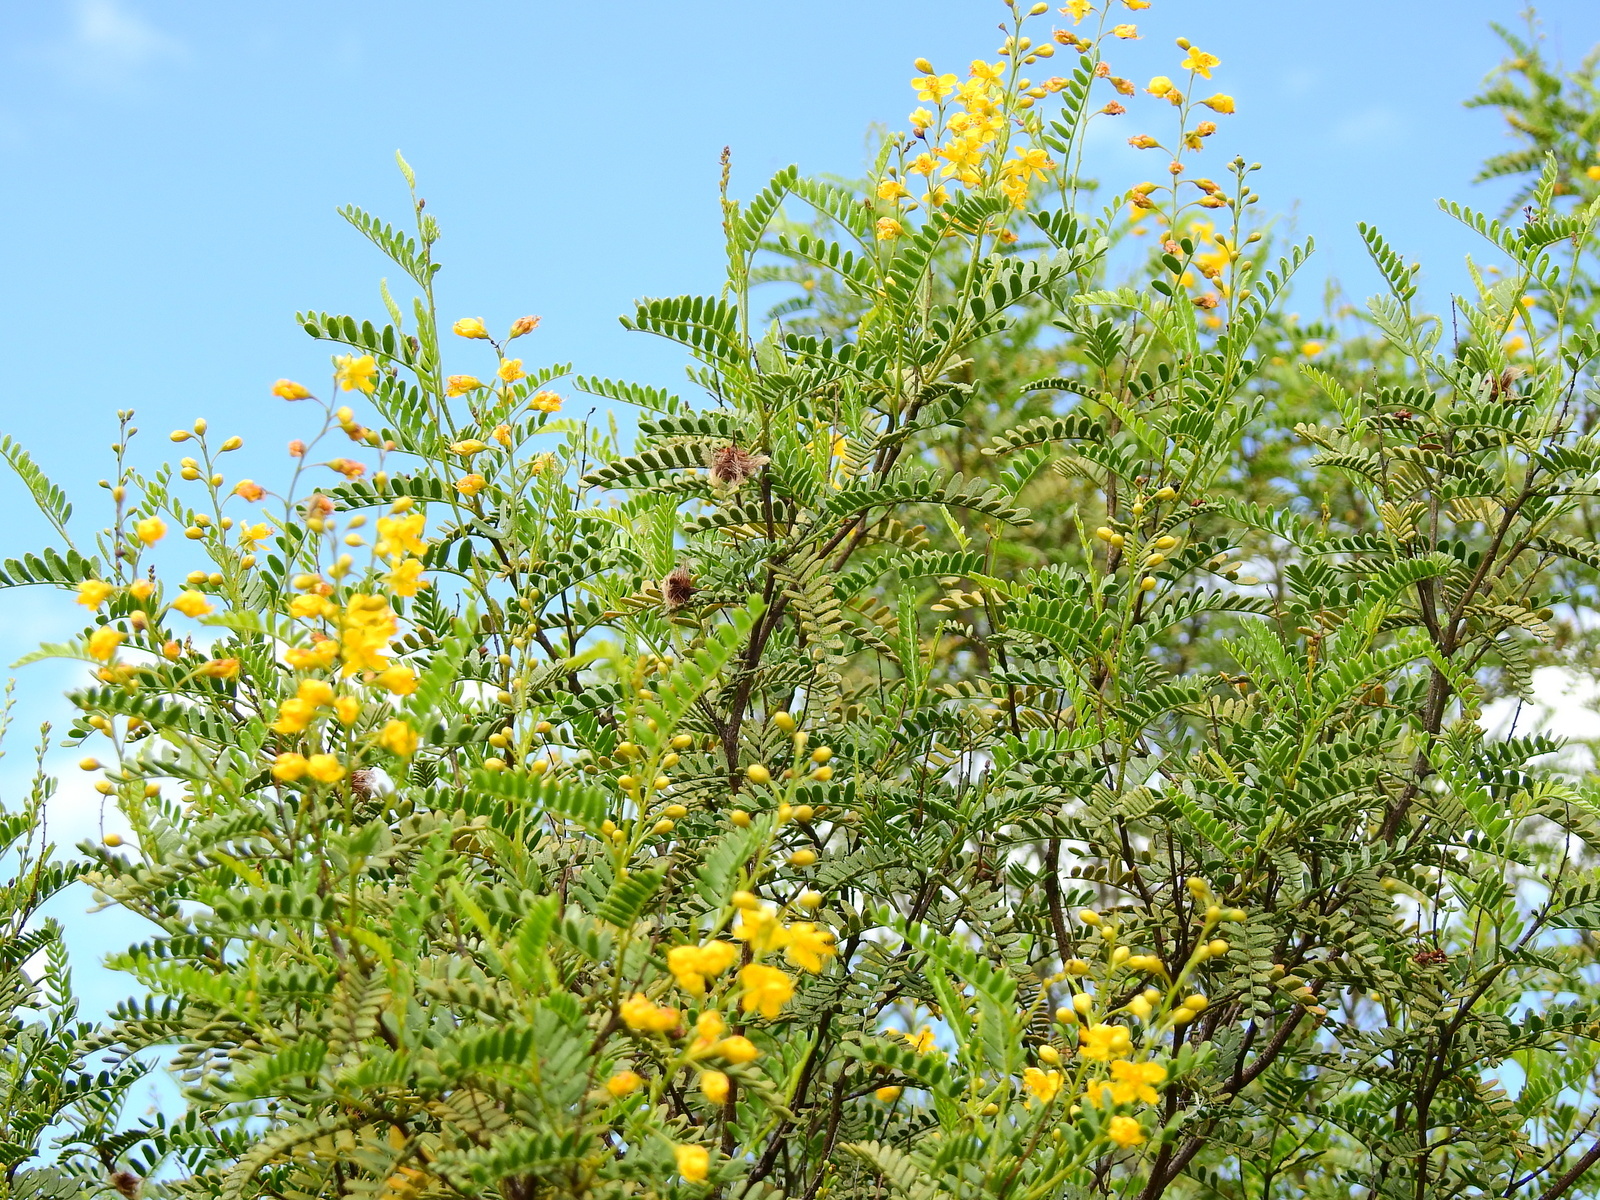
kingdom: Plantae
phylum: Tracheophyta
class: Magnoliopsida
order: Fabales
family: Fabaceae
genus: Zuccagnia
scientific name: Zuccagnia punctata
